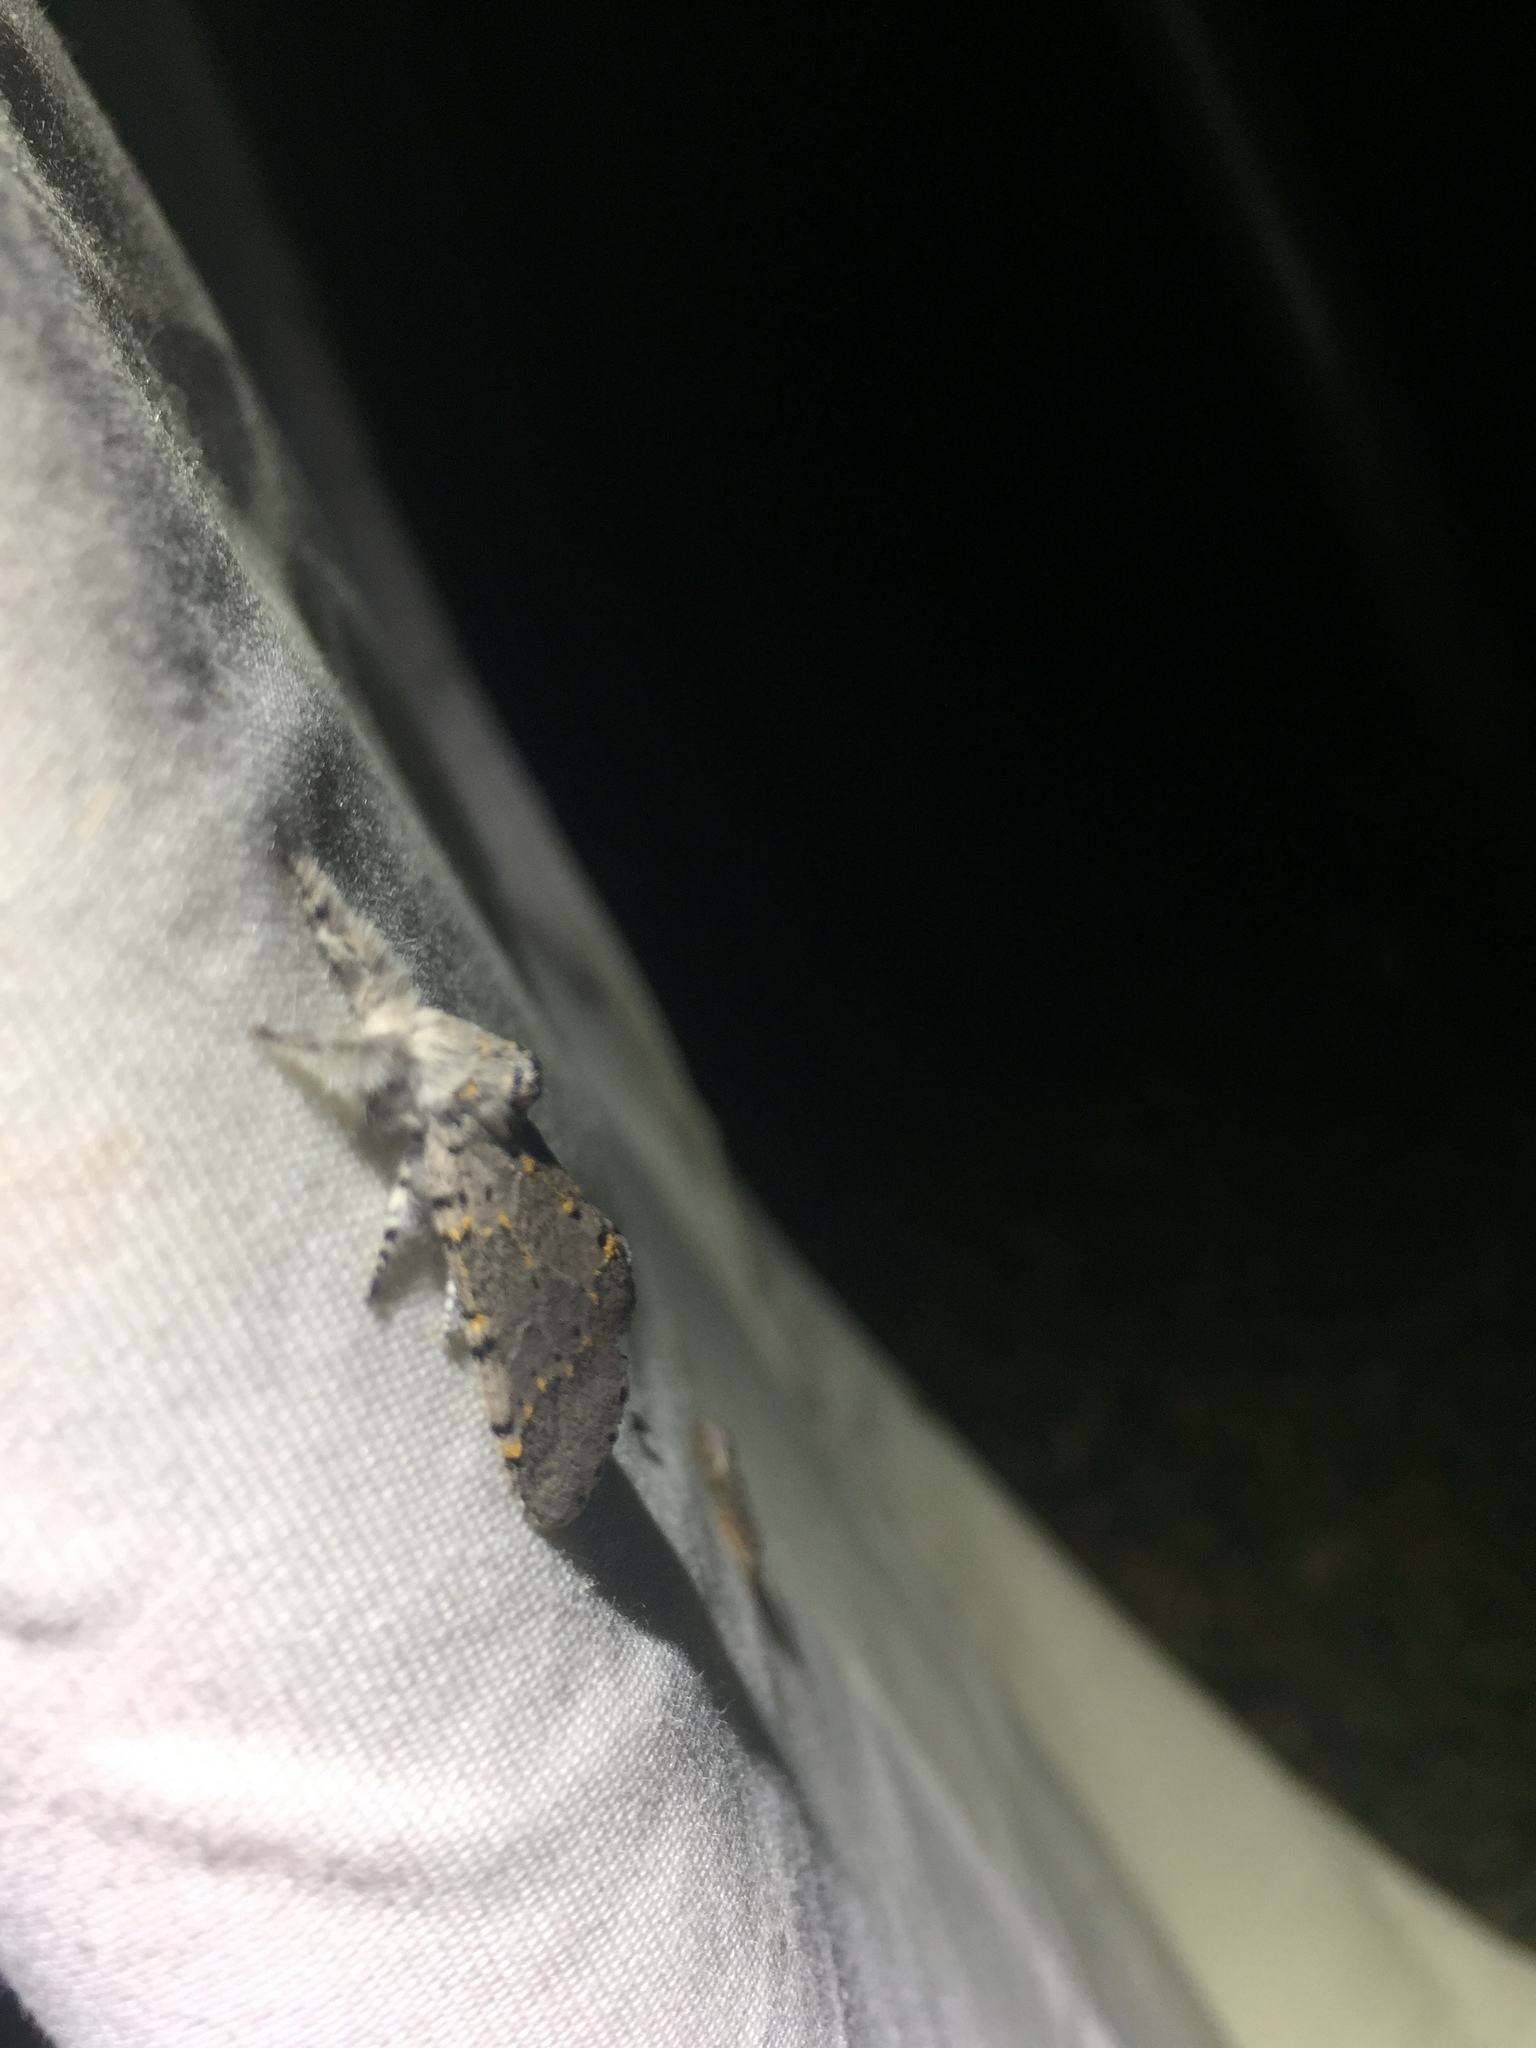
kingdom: Animalia
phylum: Arthropoda
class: Insecta
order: Lepidoptera
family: Notodontidae
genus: Furcula
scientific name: Furcula cinerea
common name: Gray furcula
